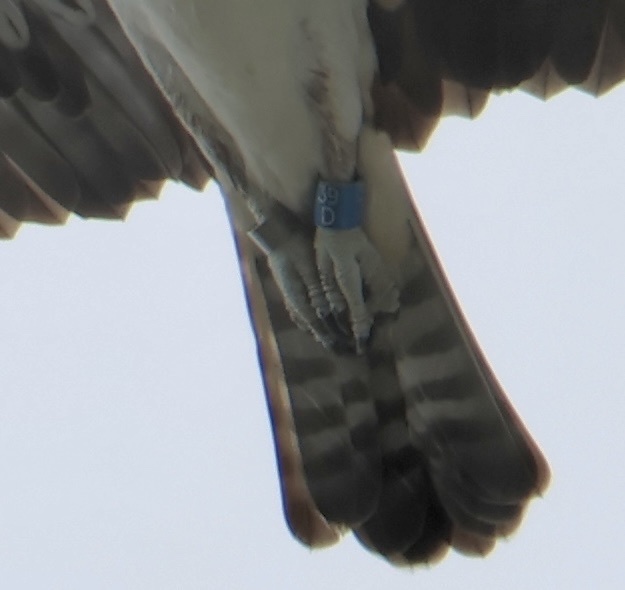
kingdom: Animalia
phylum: Chordata
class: Aves
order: Accipitriformes
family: Pandionidae
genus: Pandion
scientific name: Pandion haliaetus
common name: Osprey
